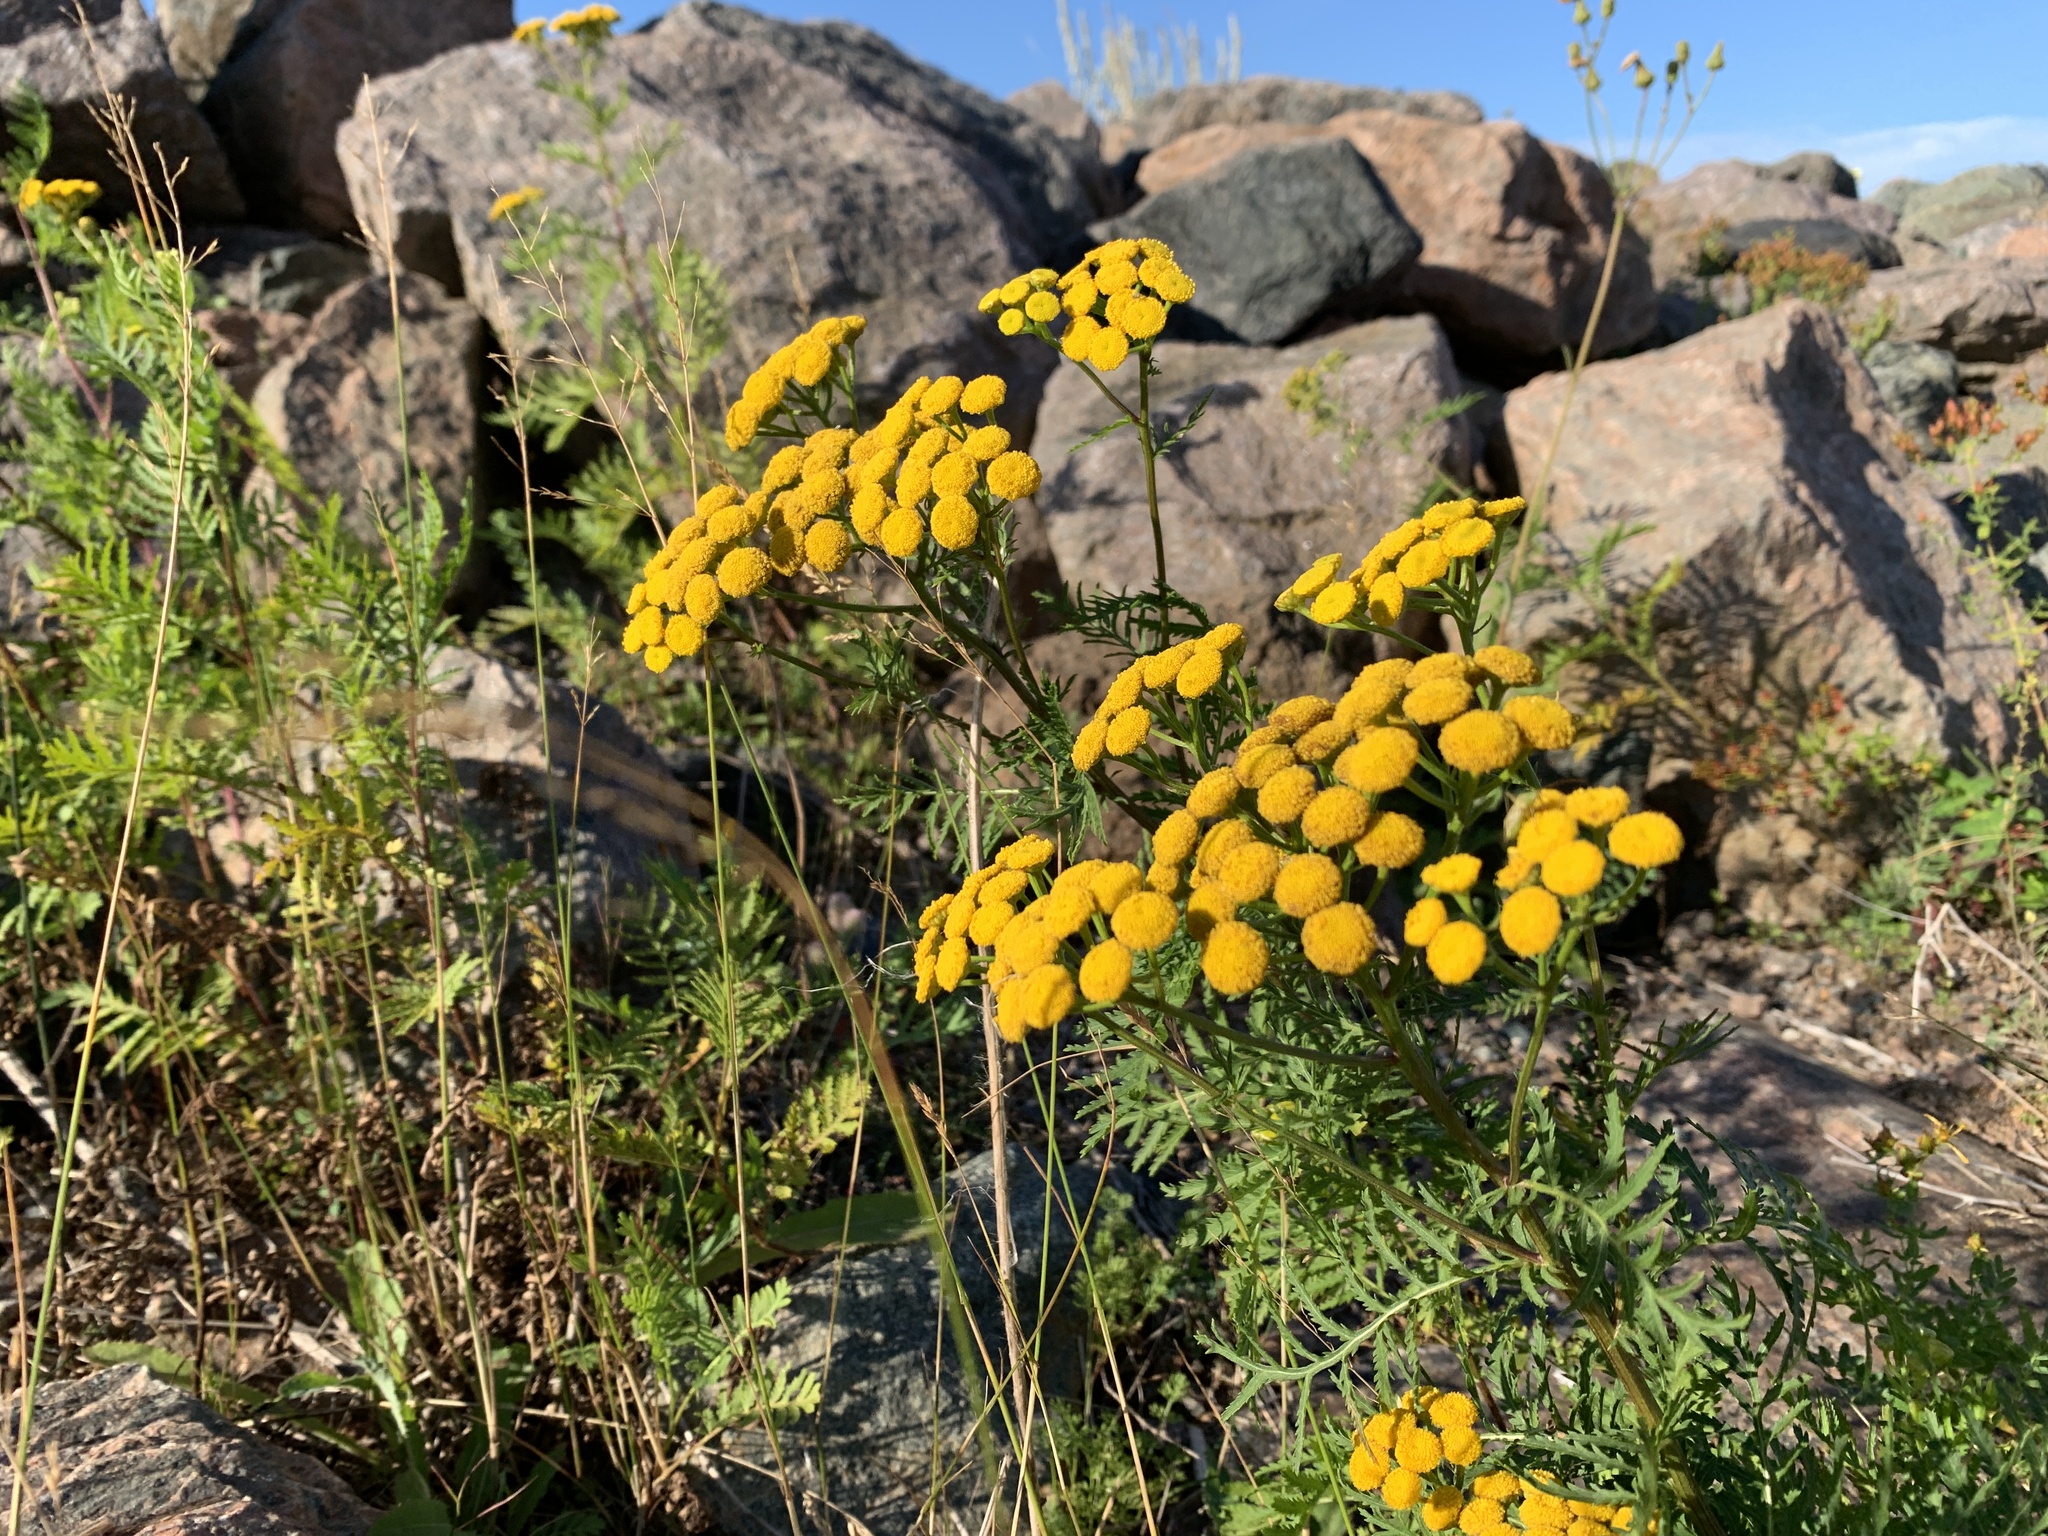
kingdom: Plantae
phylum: Tracheophyta
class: Magnoliopsida
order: Asterales
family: Asteraceae
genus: Tanacetum
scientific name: Tanacetum vulgare
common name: Common tansy
